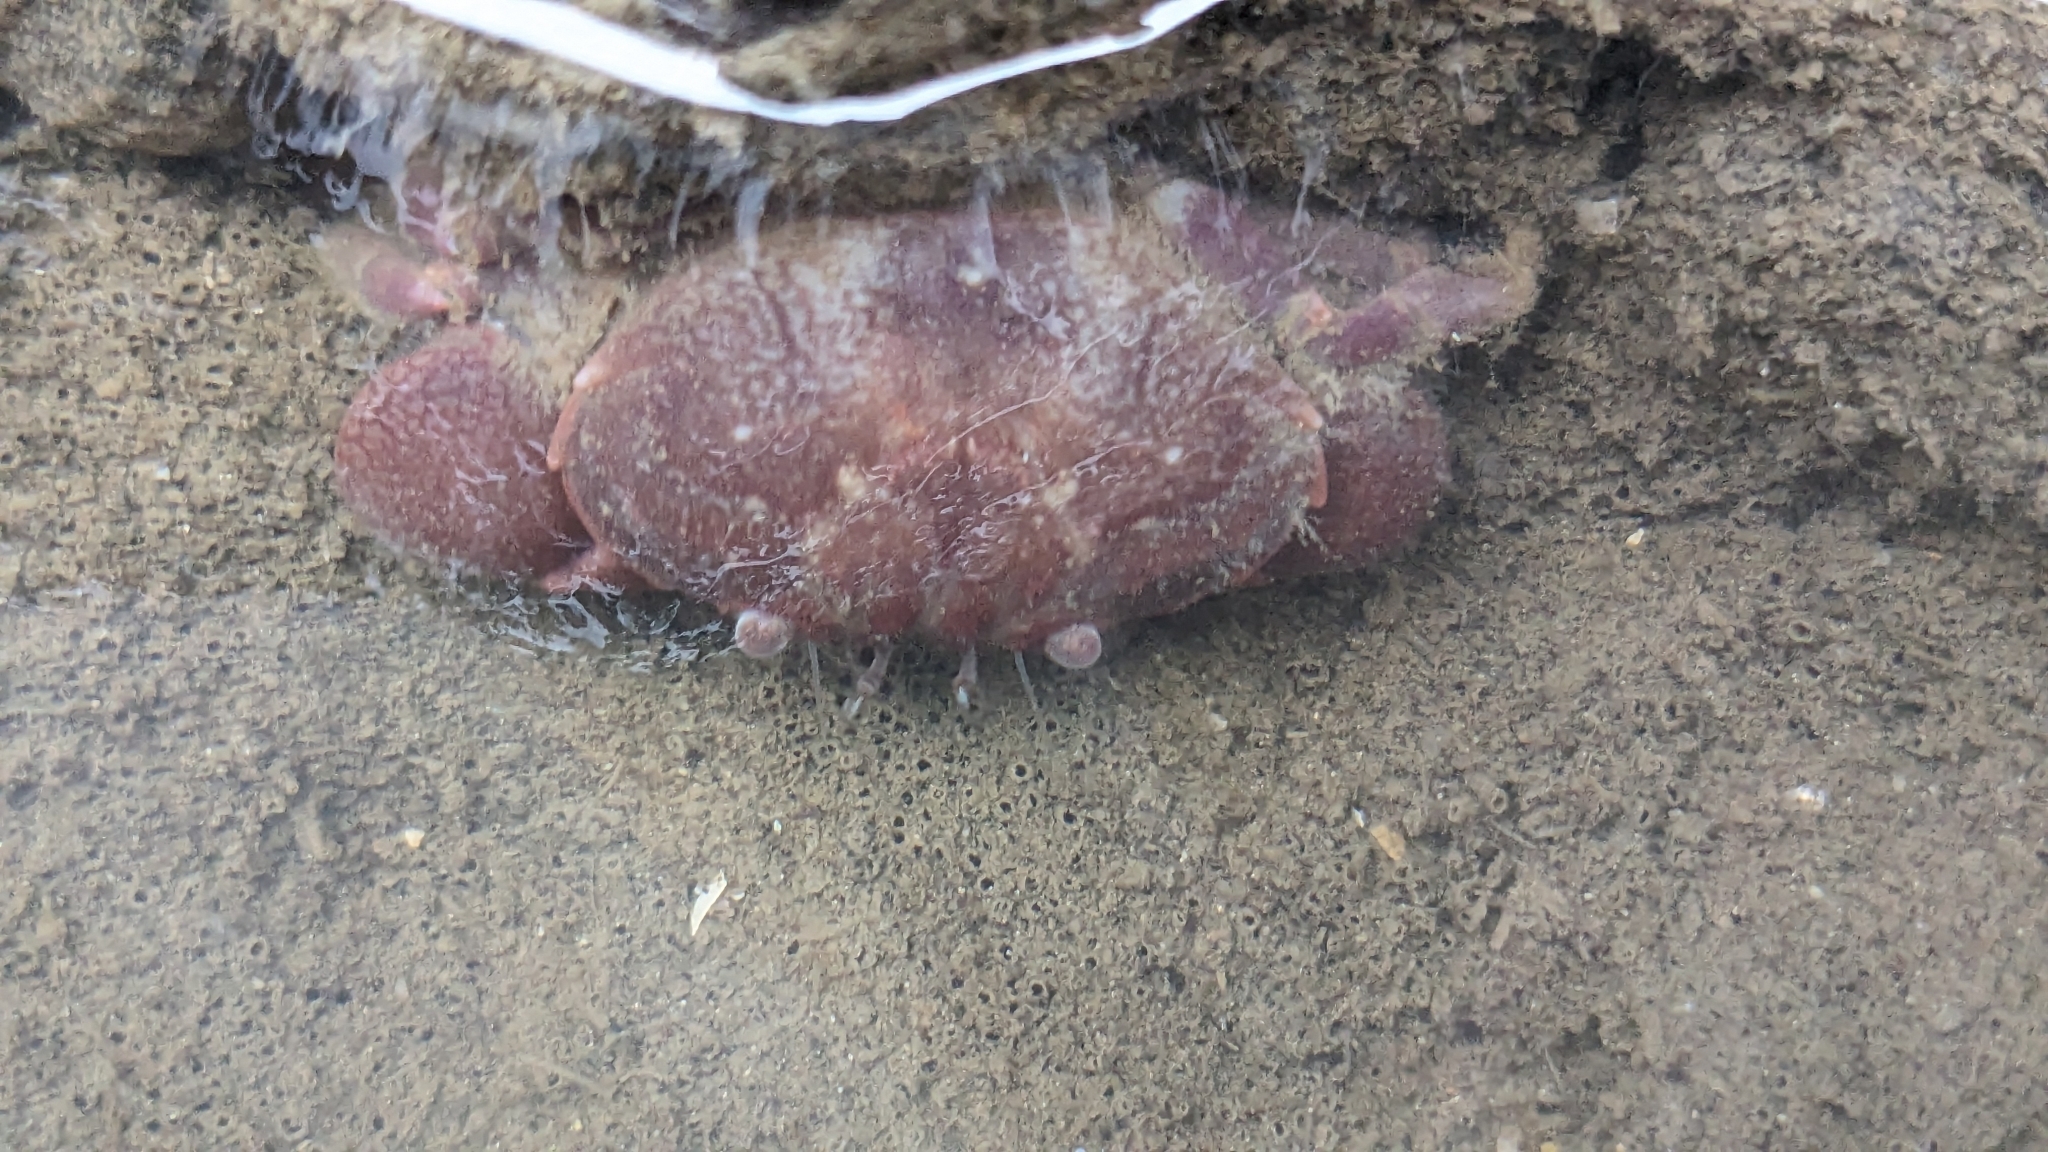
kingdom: Animalia
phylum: Arthropoda
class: Malacostraca
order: Decapoda
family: Menippidae
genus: Menippe
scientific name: Menippe rumphii
